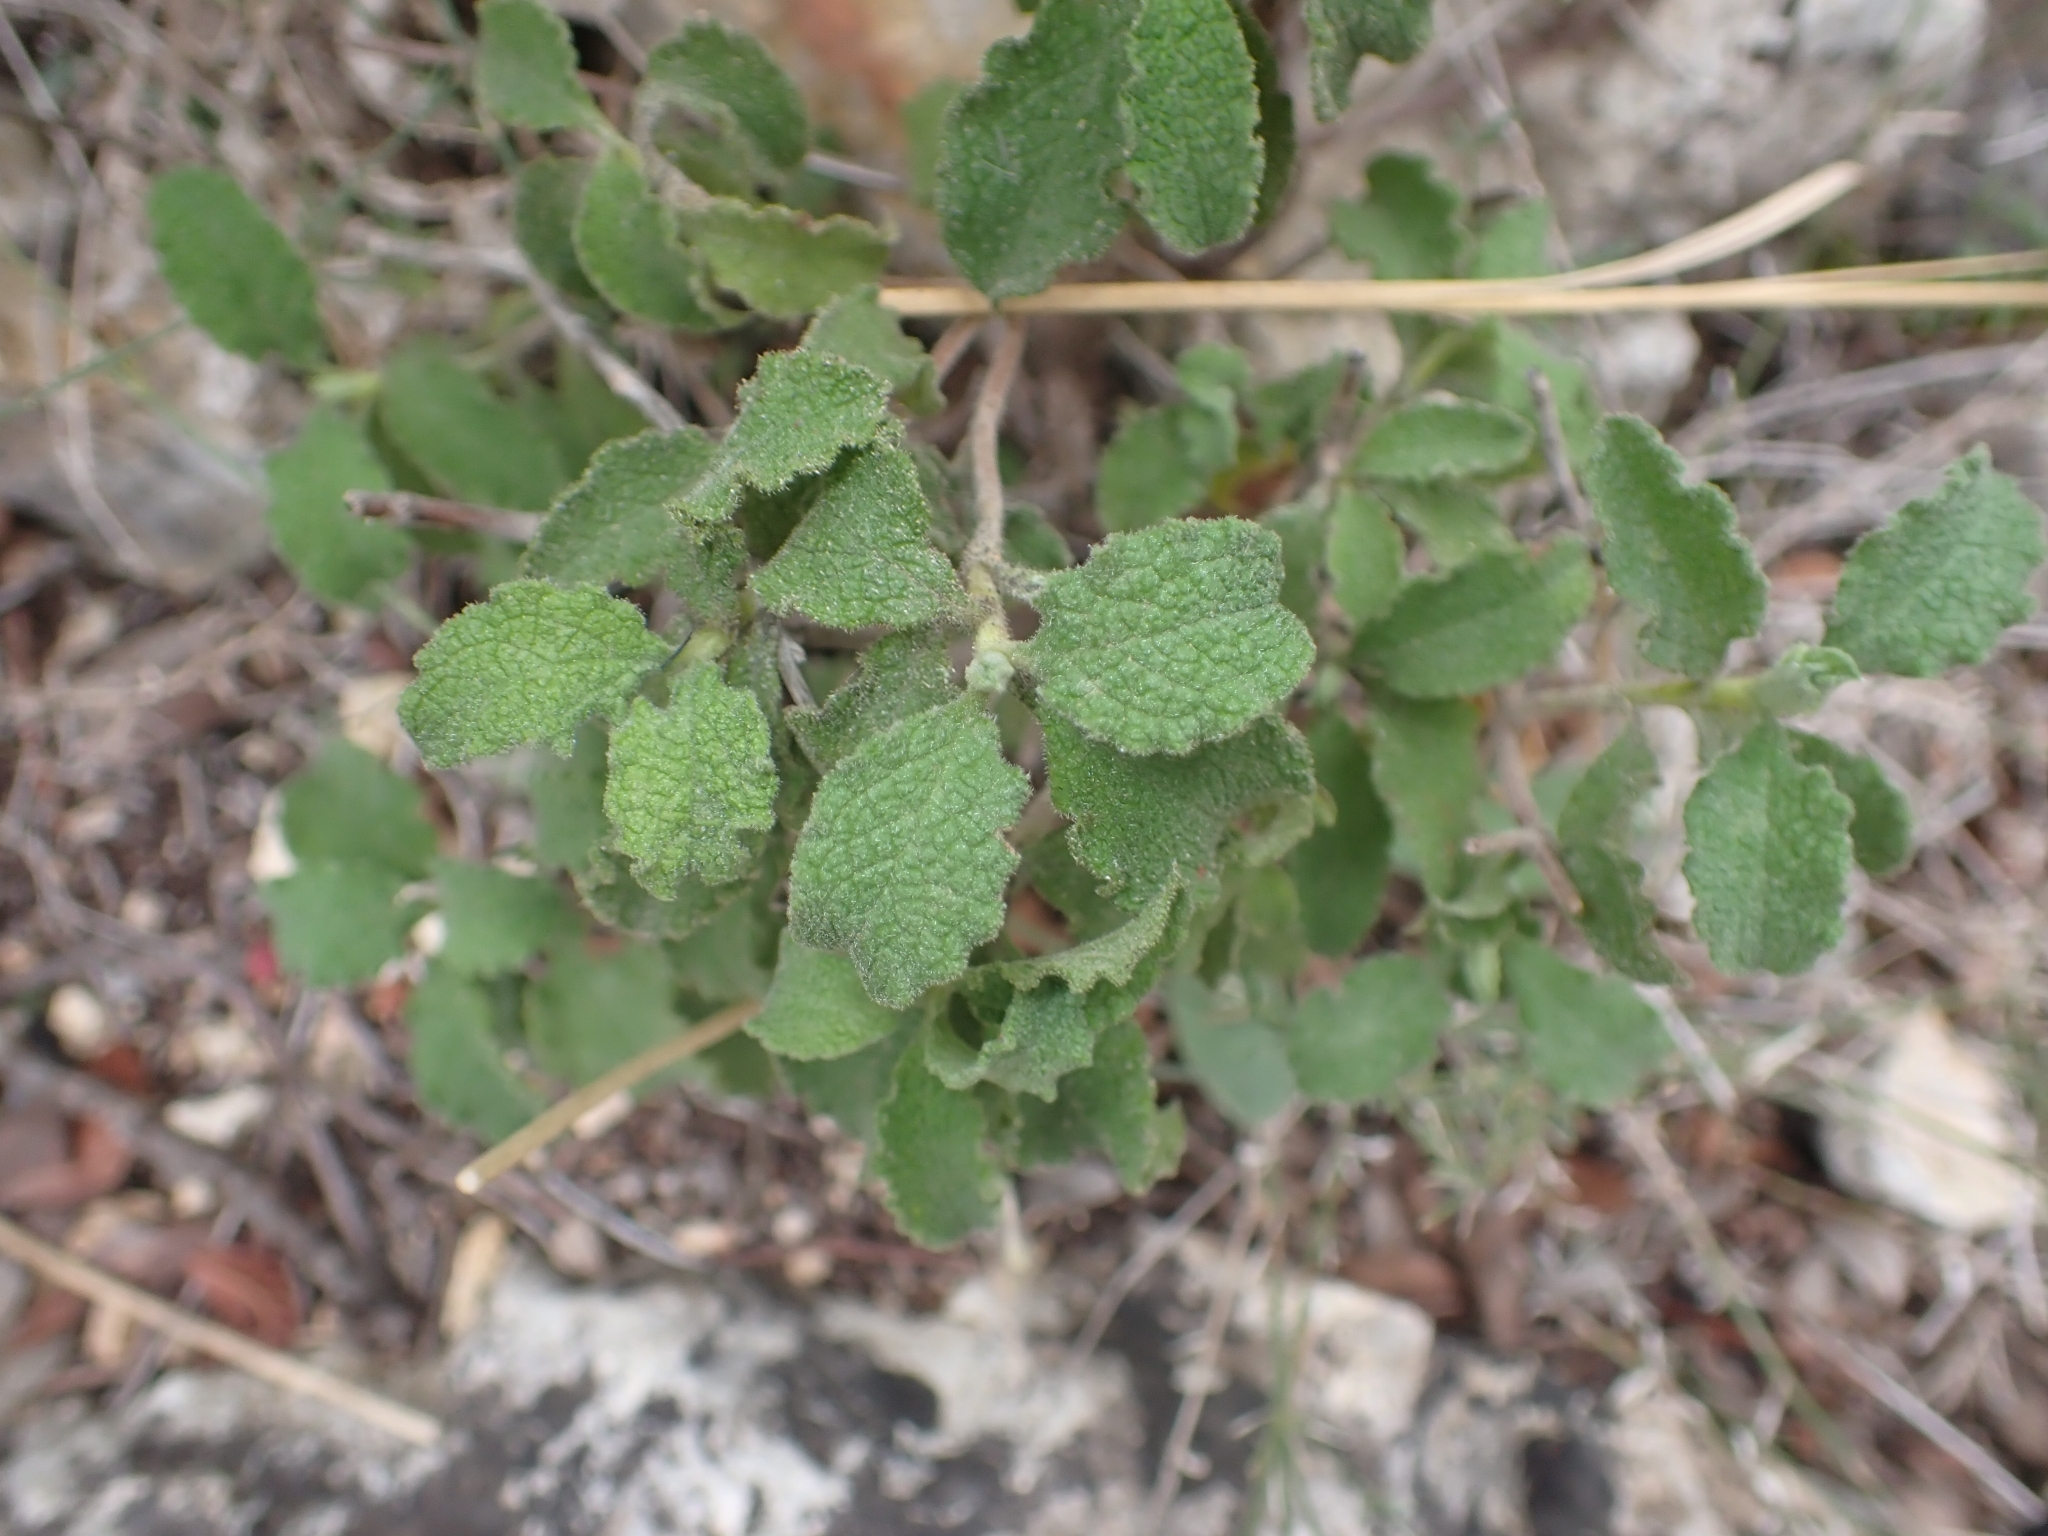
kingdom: Plantae
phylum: Tracheophyta
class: Magnoliopsida
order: Malvales
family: Cistaceae
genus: Cistus
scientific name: Cistus creticus
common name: Cretan rockrose
